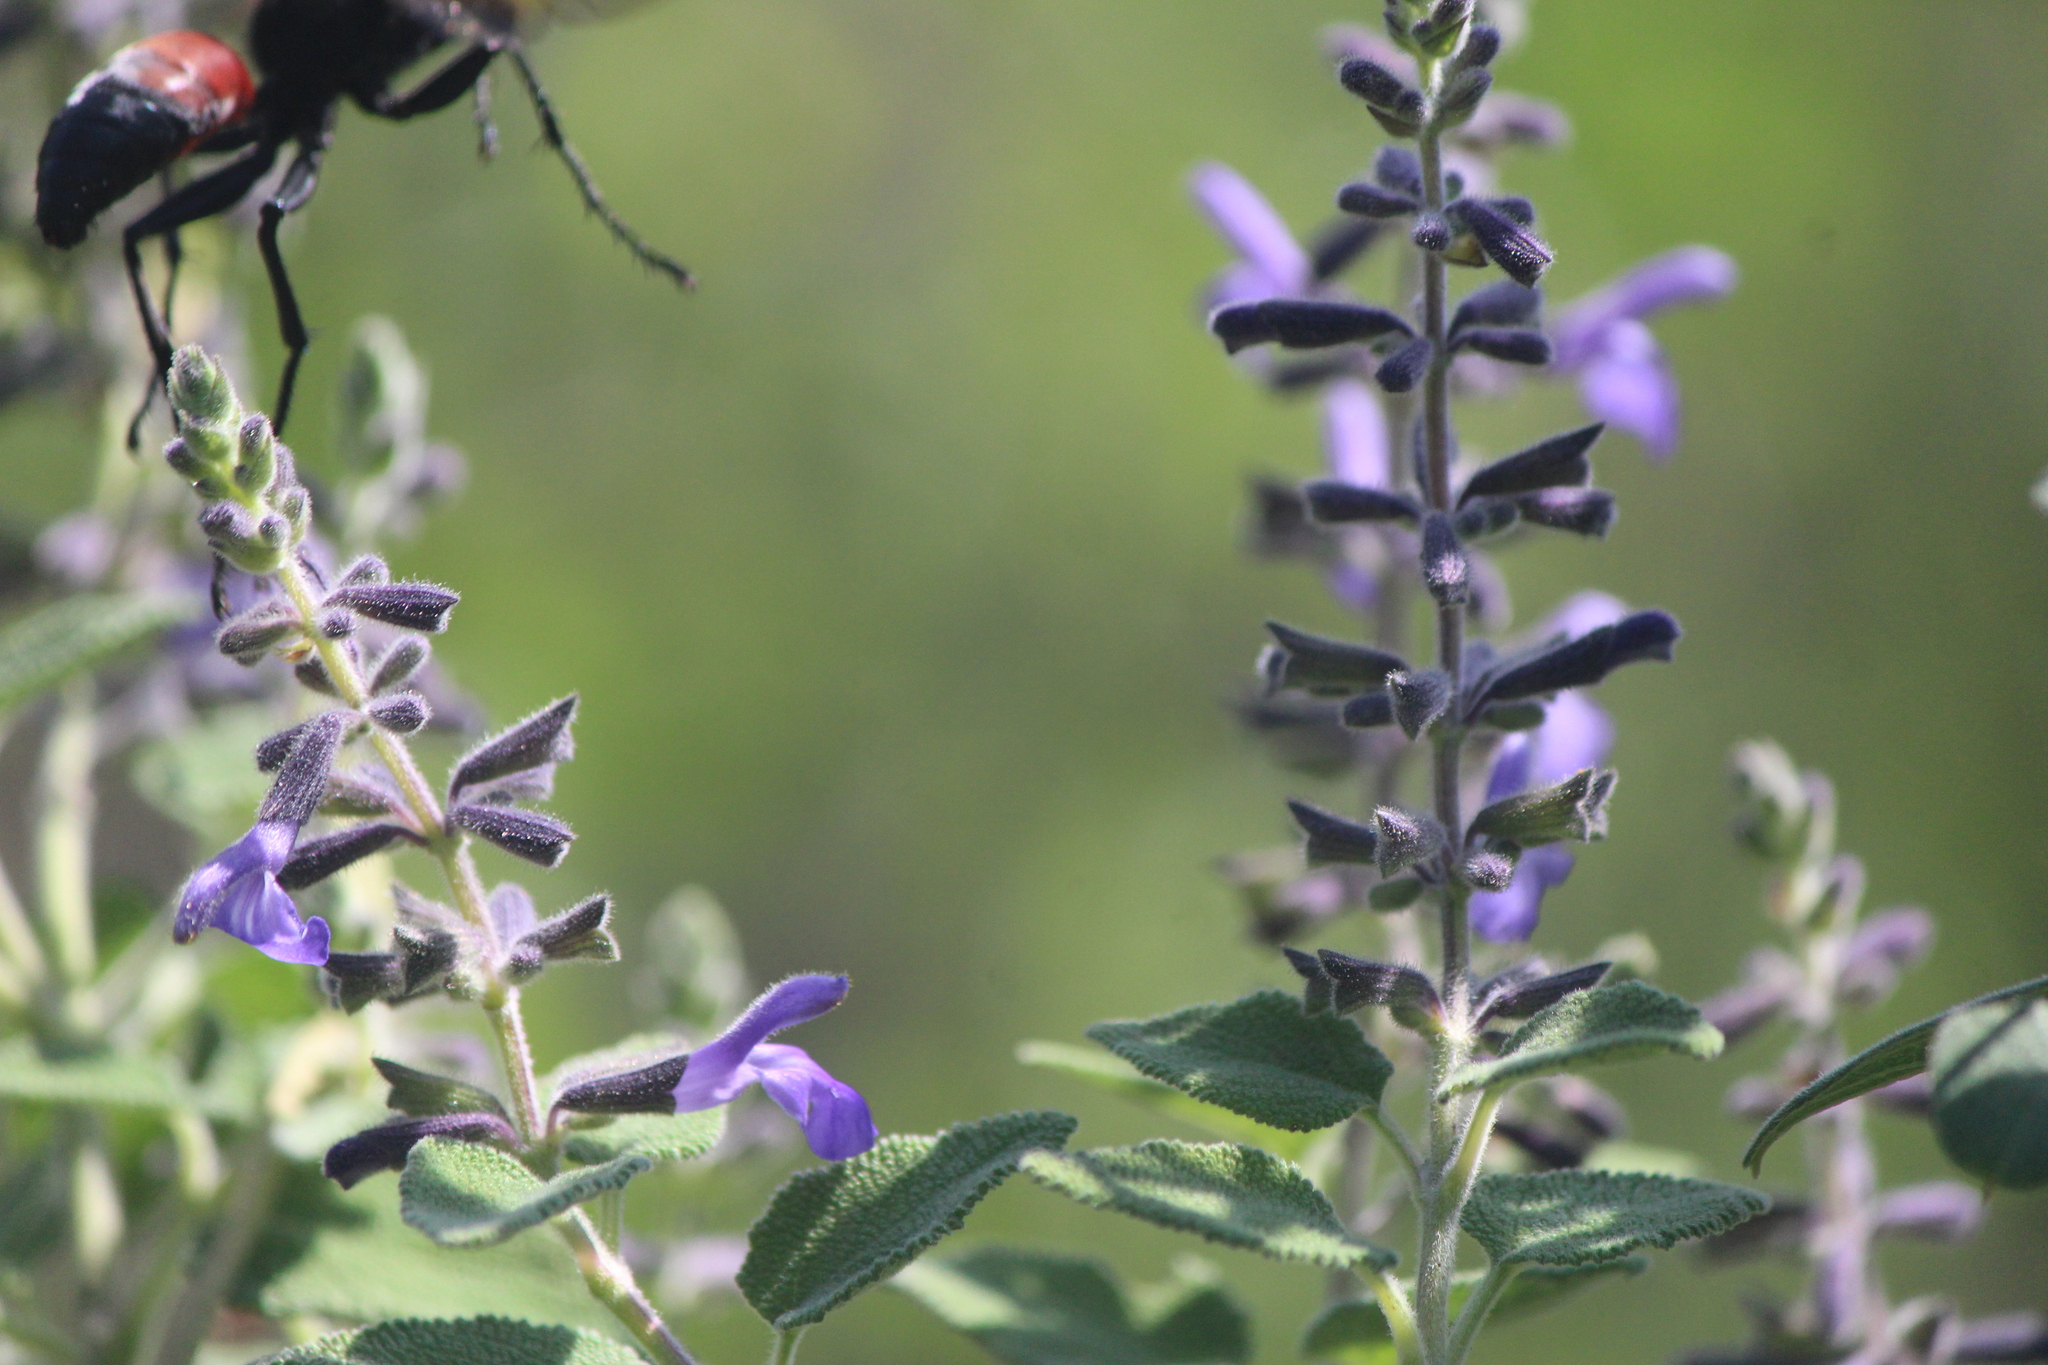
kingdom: Animalia
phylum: Arthropoda
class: Insecta
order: Hymenoptera
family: Sphecidae
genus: Sphex
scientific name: Sphex tepanecus
